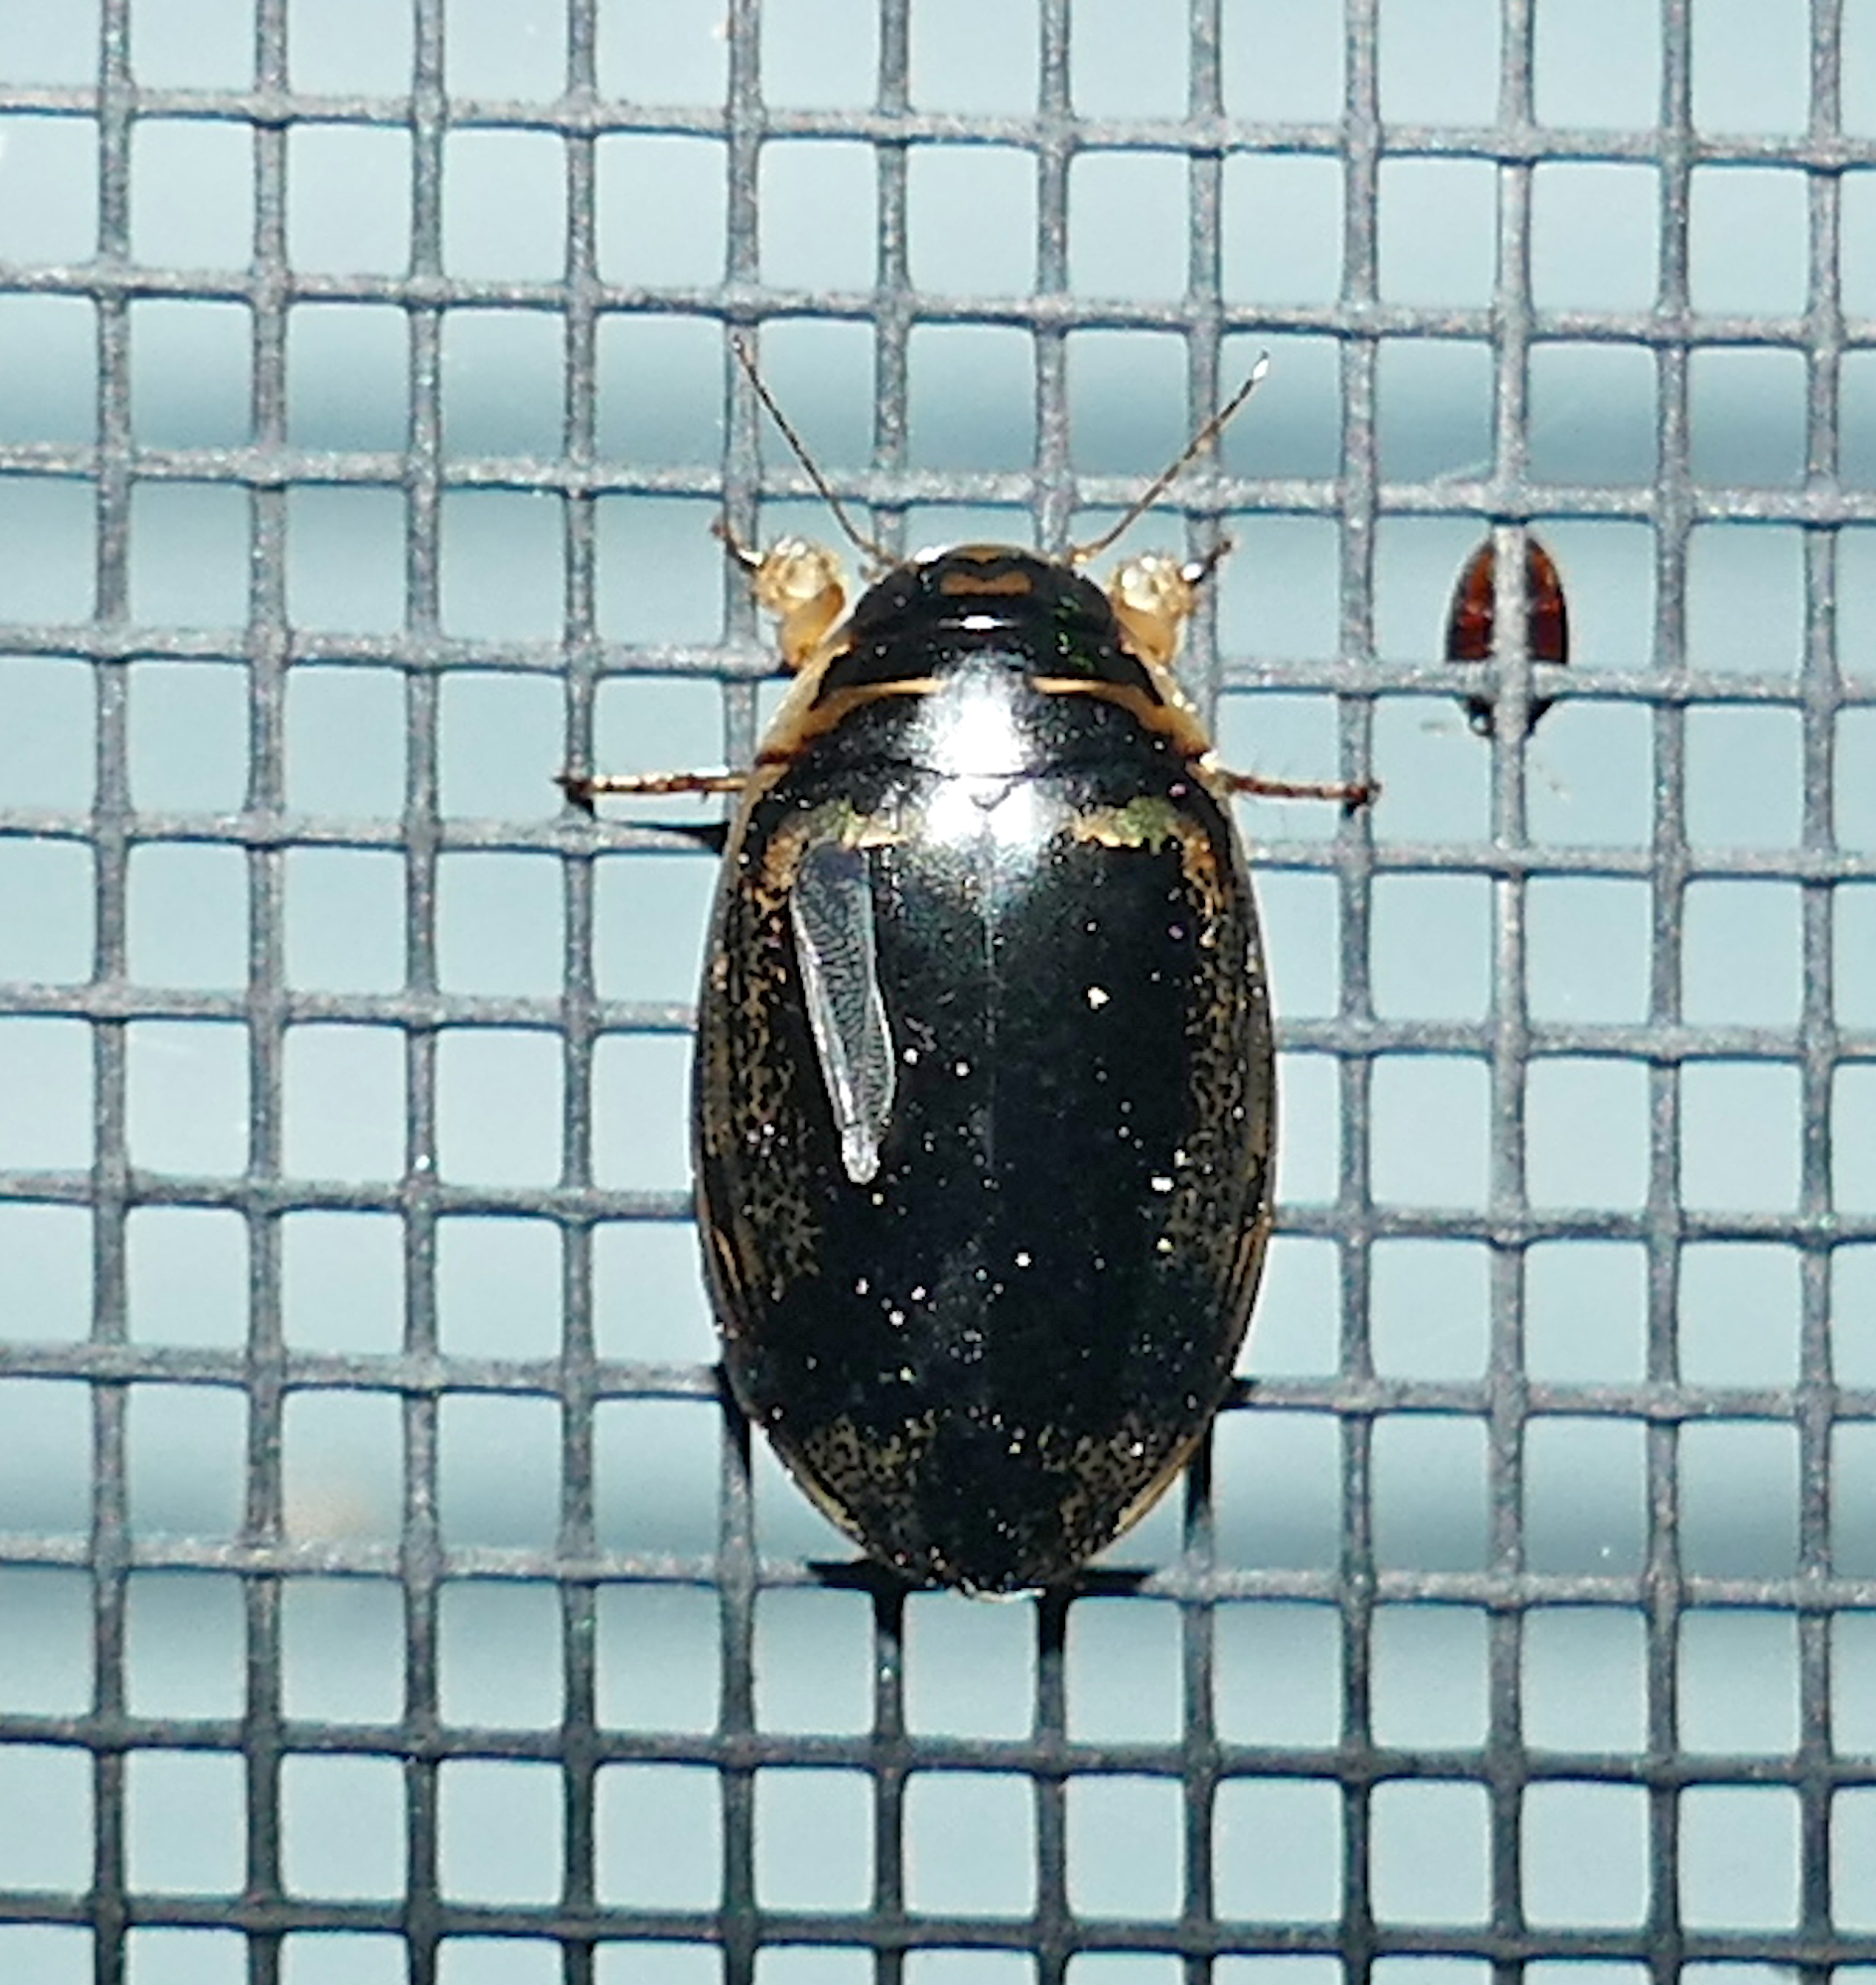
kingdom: Animalia
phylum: Arthropoda
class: Insecta
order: Coleoptera
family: Dytiscidae
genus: Thermonectus
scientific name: Thermonectus basillaris
